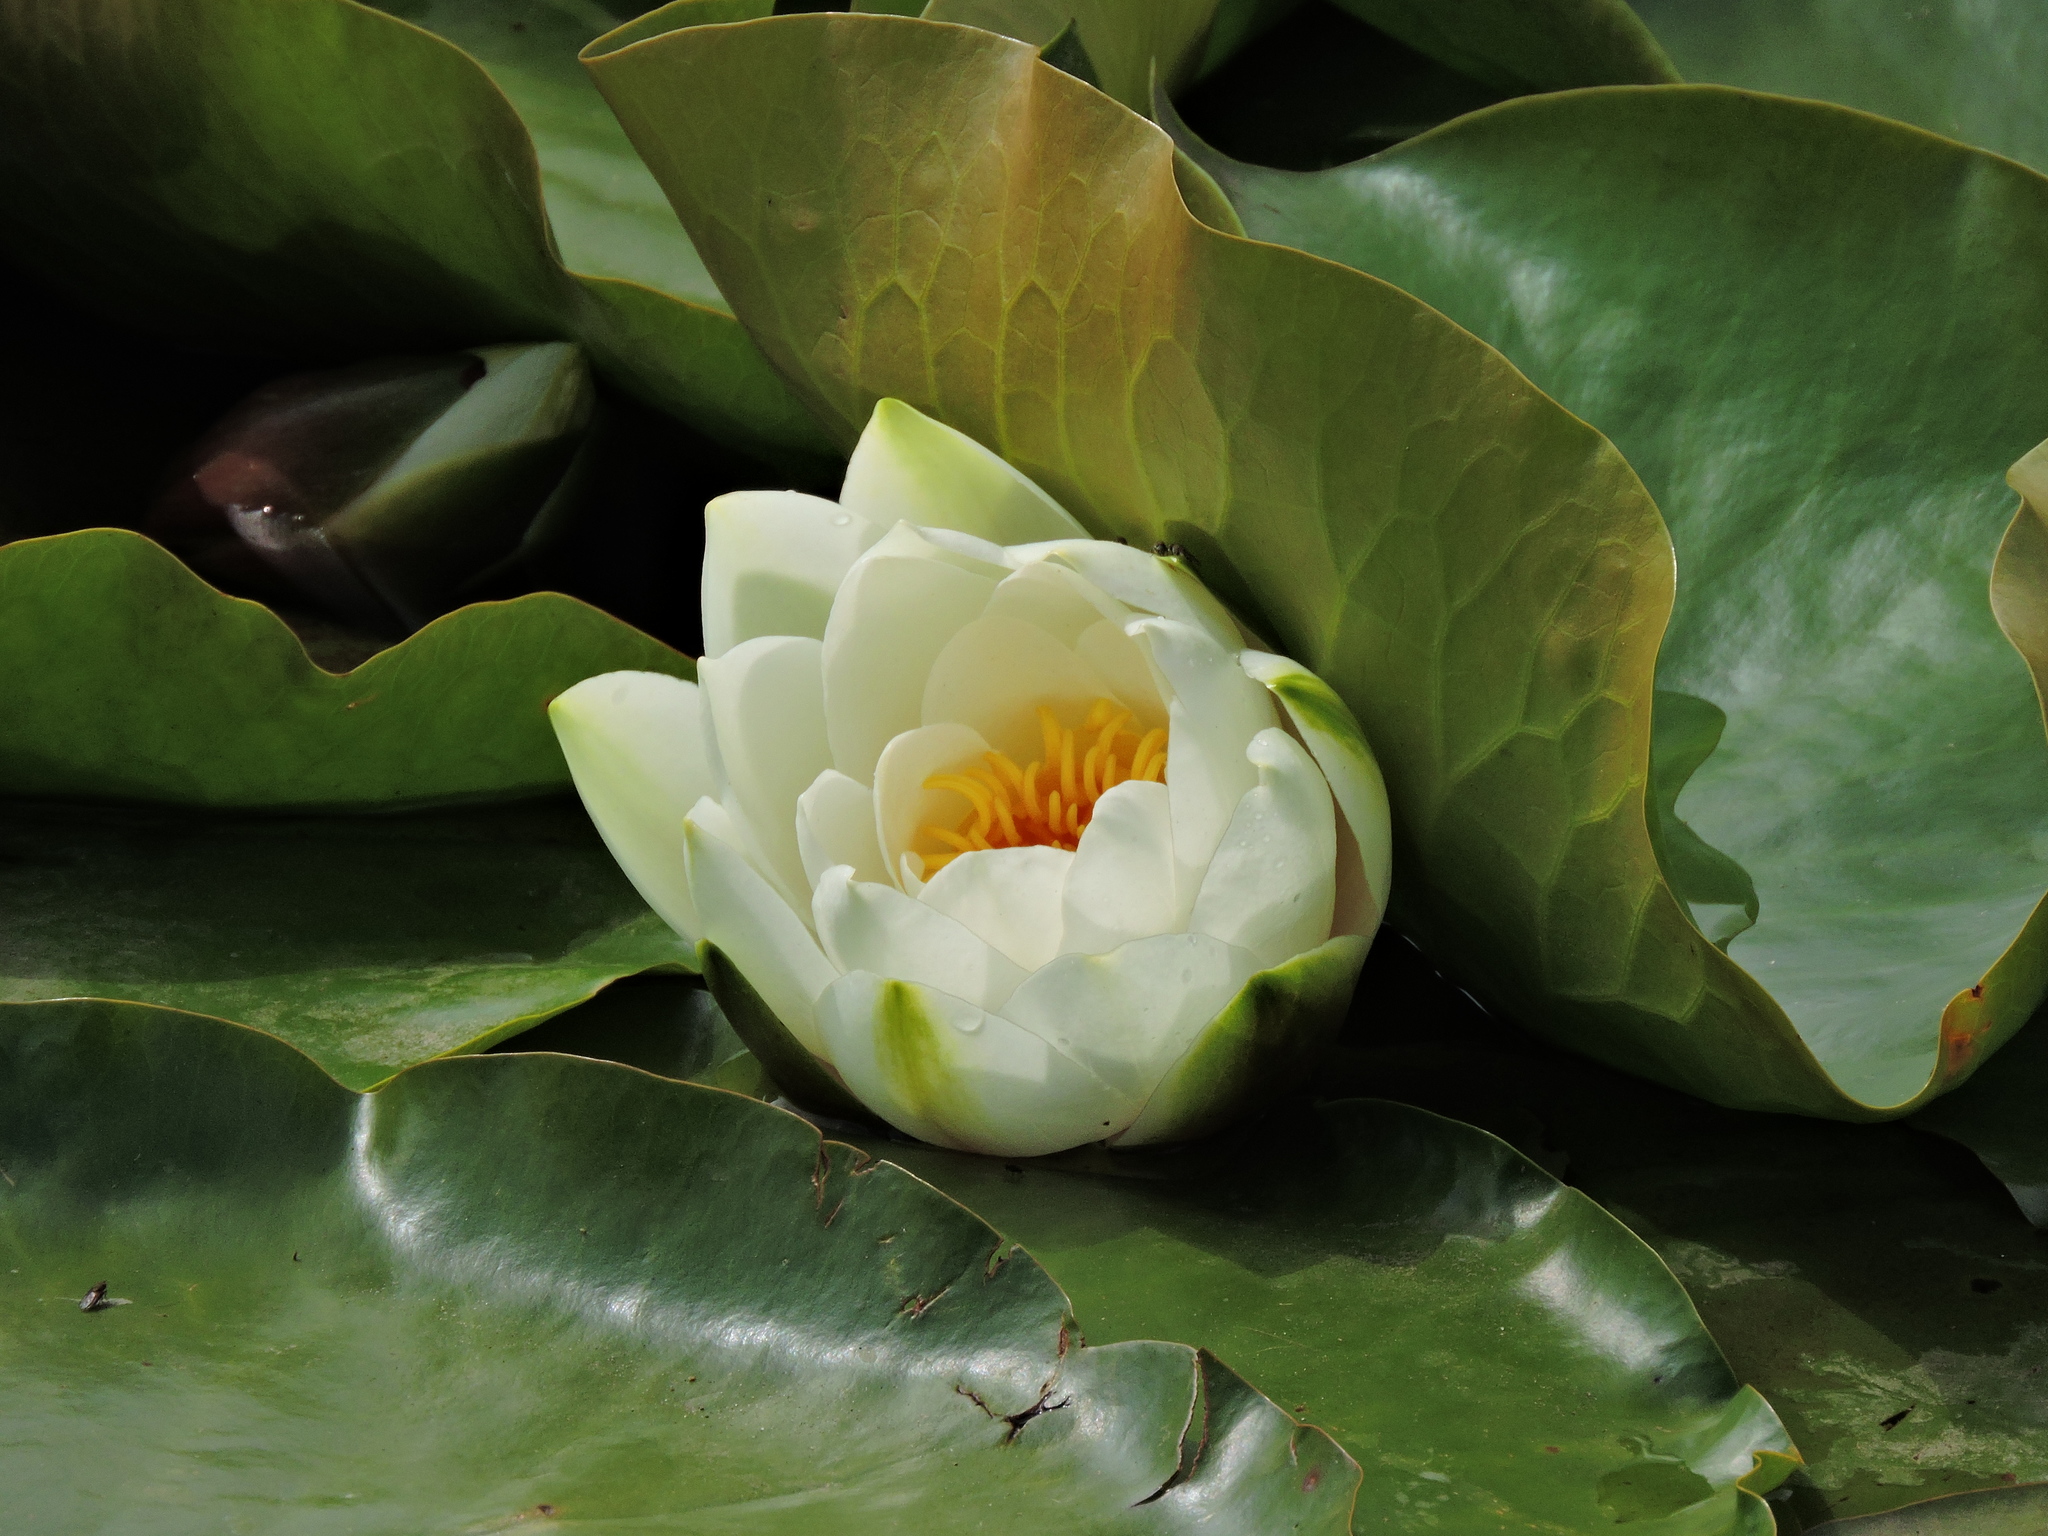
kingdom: Plantae
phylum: Tracheophyta
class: Magnoliopsida
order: Nymphaeales
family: Nymphaeaceae
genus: Nymphaea
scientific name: Nymphaea alba
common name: White water-lily
